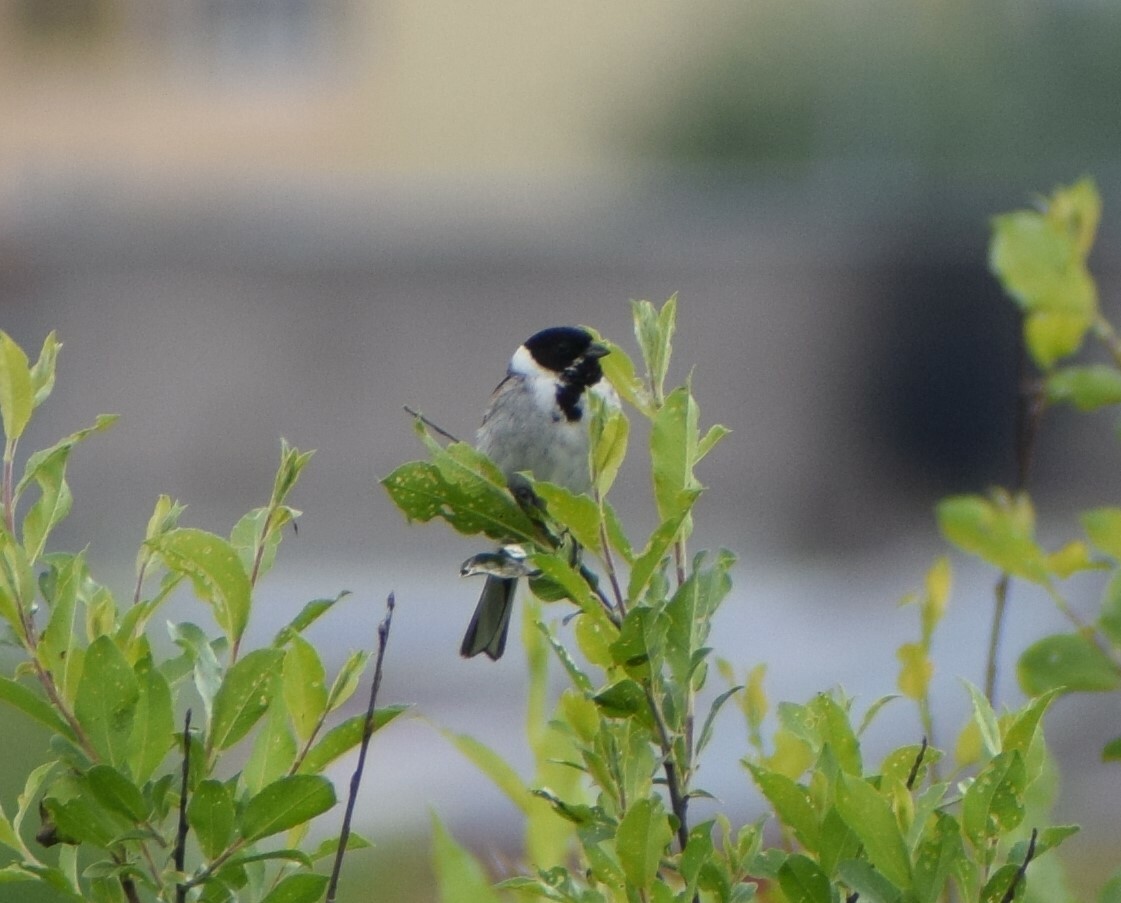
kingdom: Animalia
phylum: Chordata
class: Aves
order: Passeriformes
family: Emberizidae
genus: Emberiza
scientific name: Emberiza schoeniclus
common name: Reed bunting
